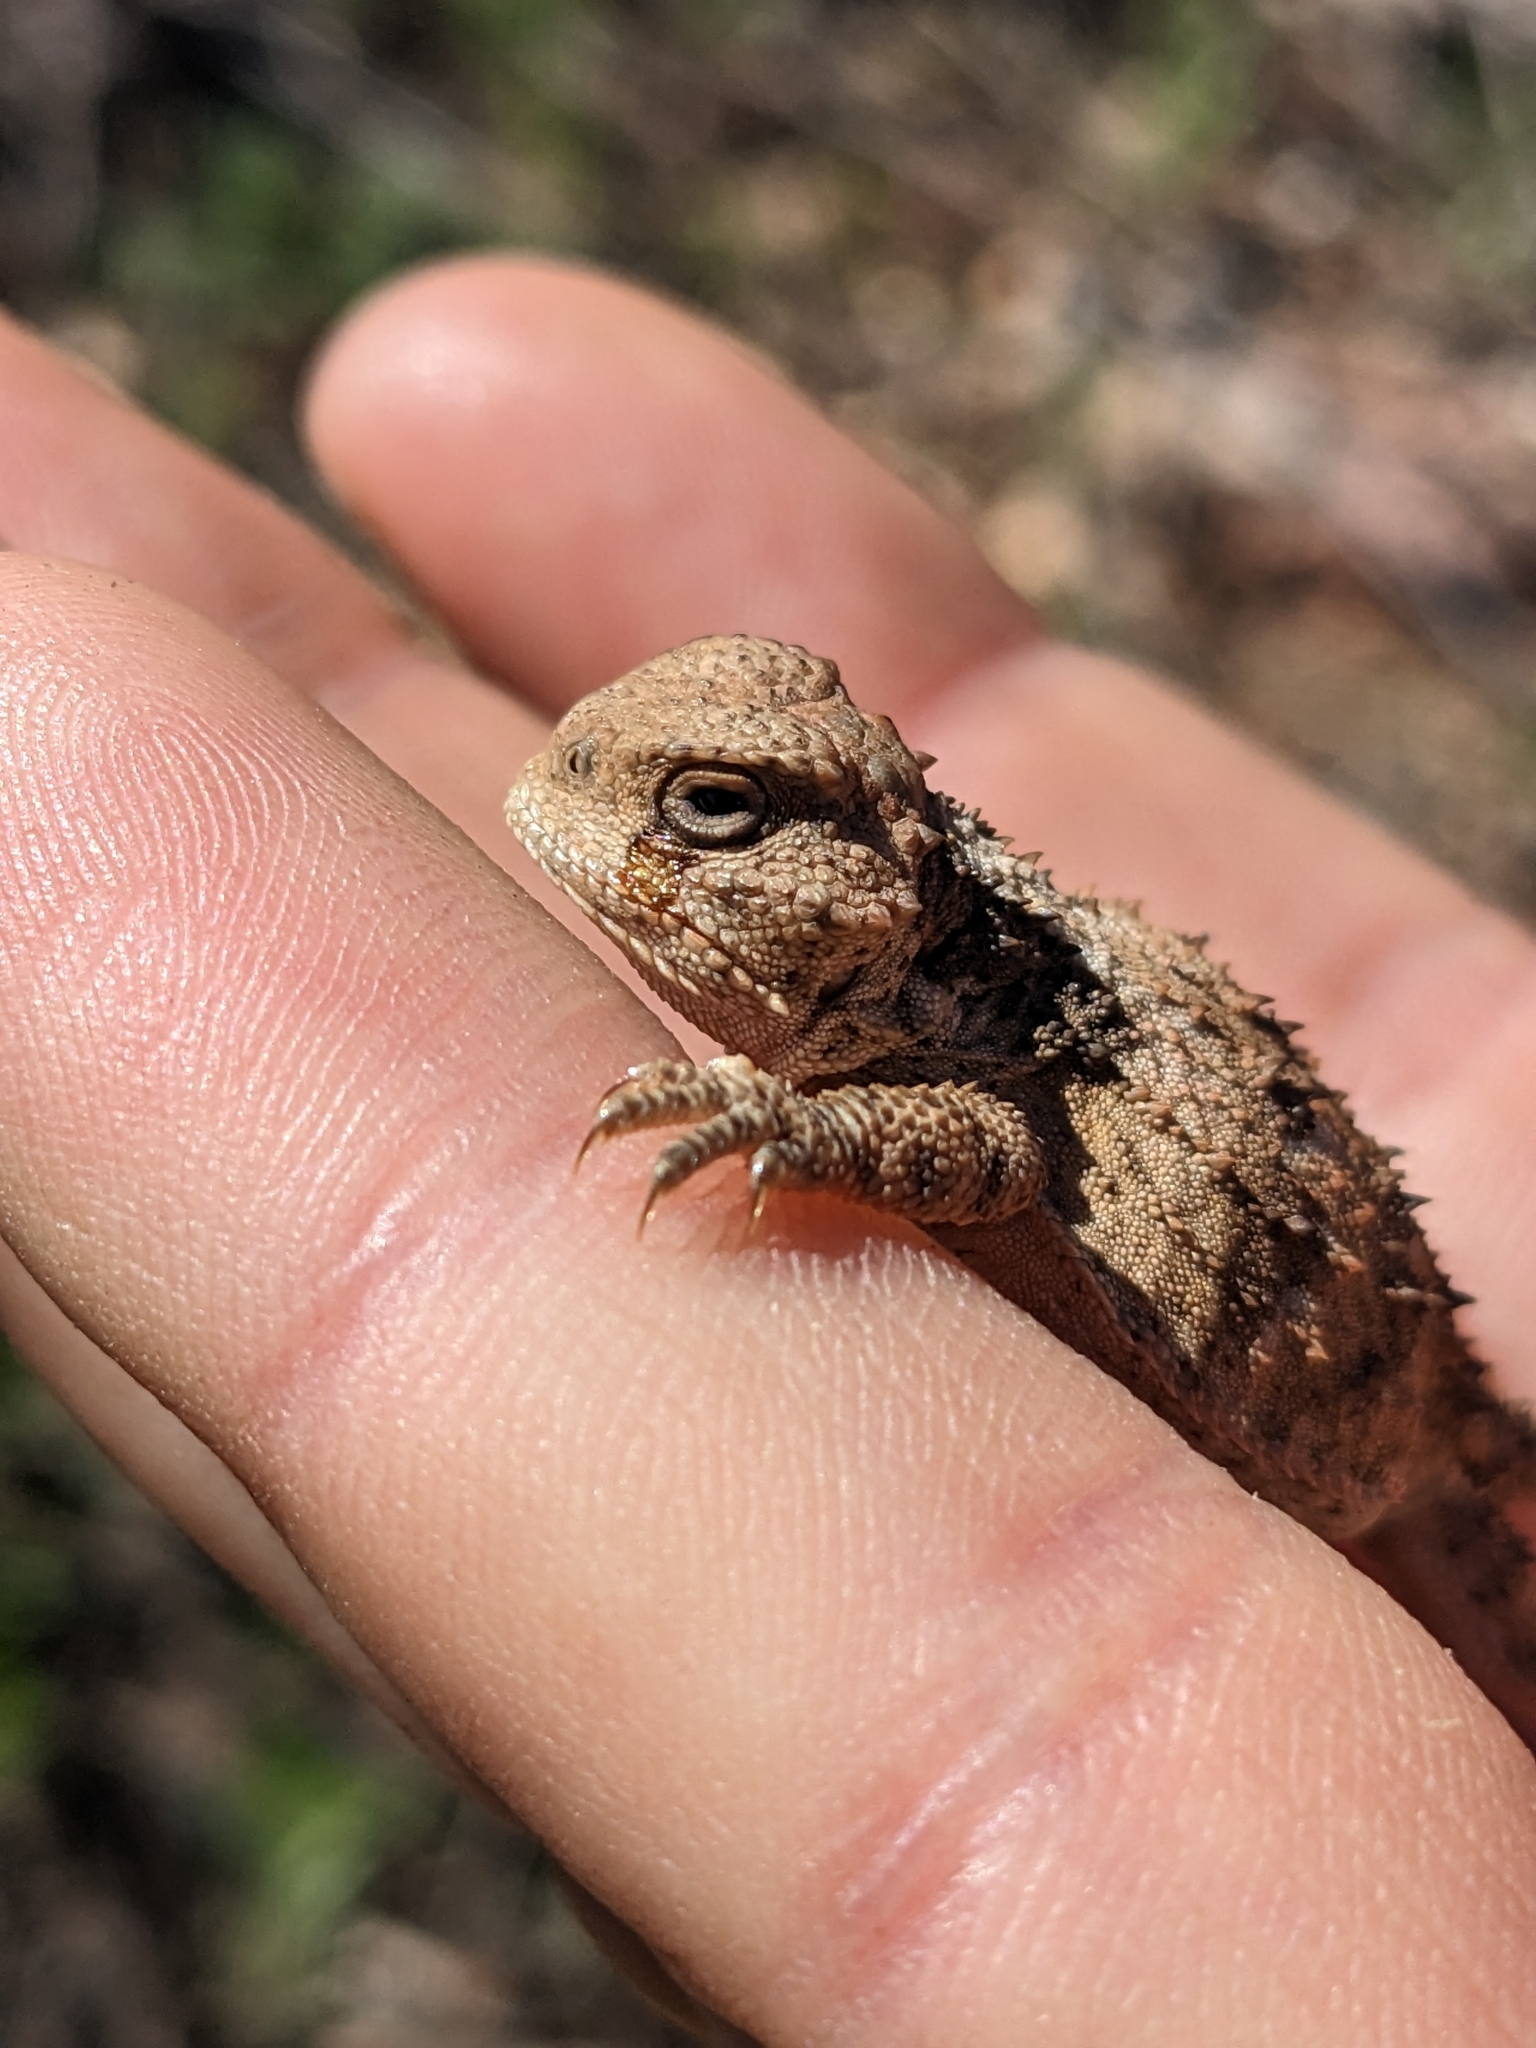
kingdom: Animalia
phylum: Chordata
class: Squamata
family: Phrynosomatidae
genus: Phrynosoma
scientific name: Phrynosoma hernandesi
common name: Greater short-horned lizard
